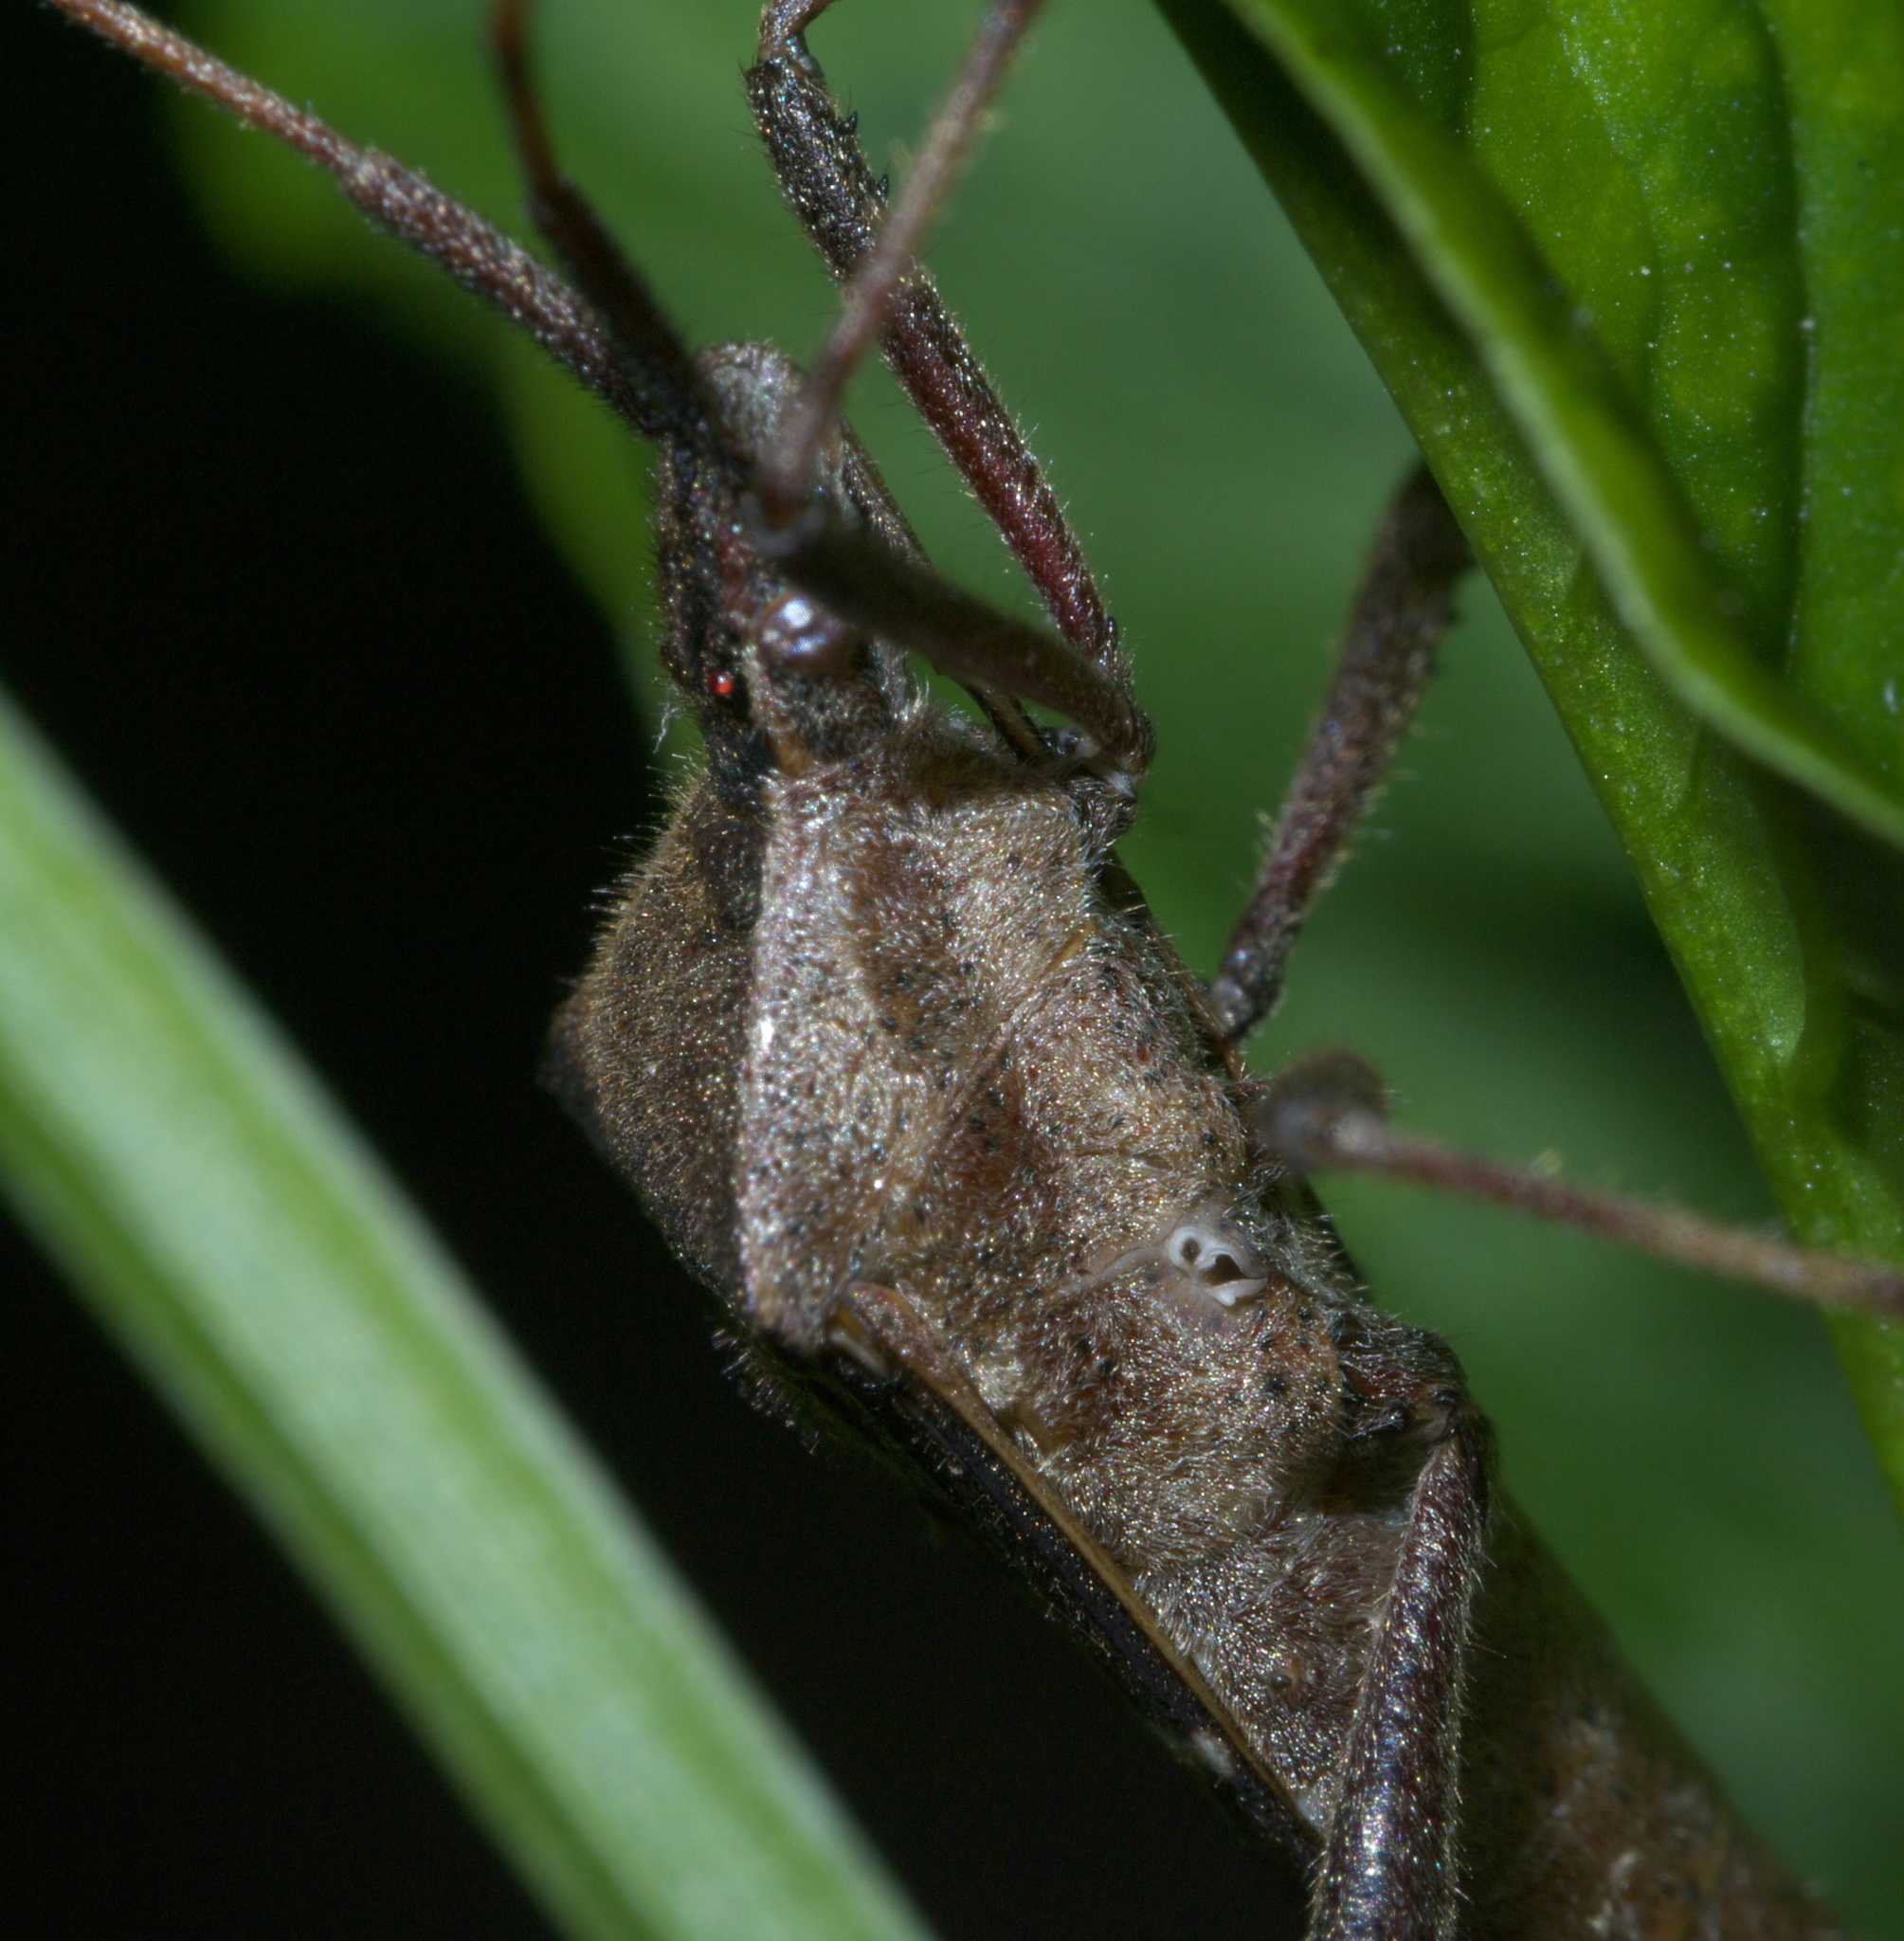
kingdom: Animalia
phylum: Arthropoda
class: Insecta
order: Hemiptera
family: Coreidae
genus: Leptoglossus
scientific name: Leptoglossus phyllopus
